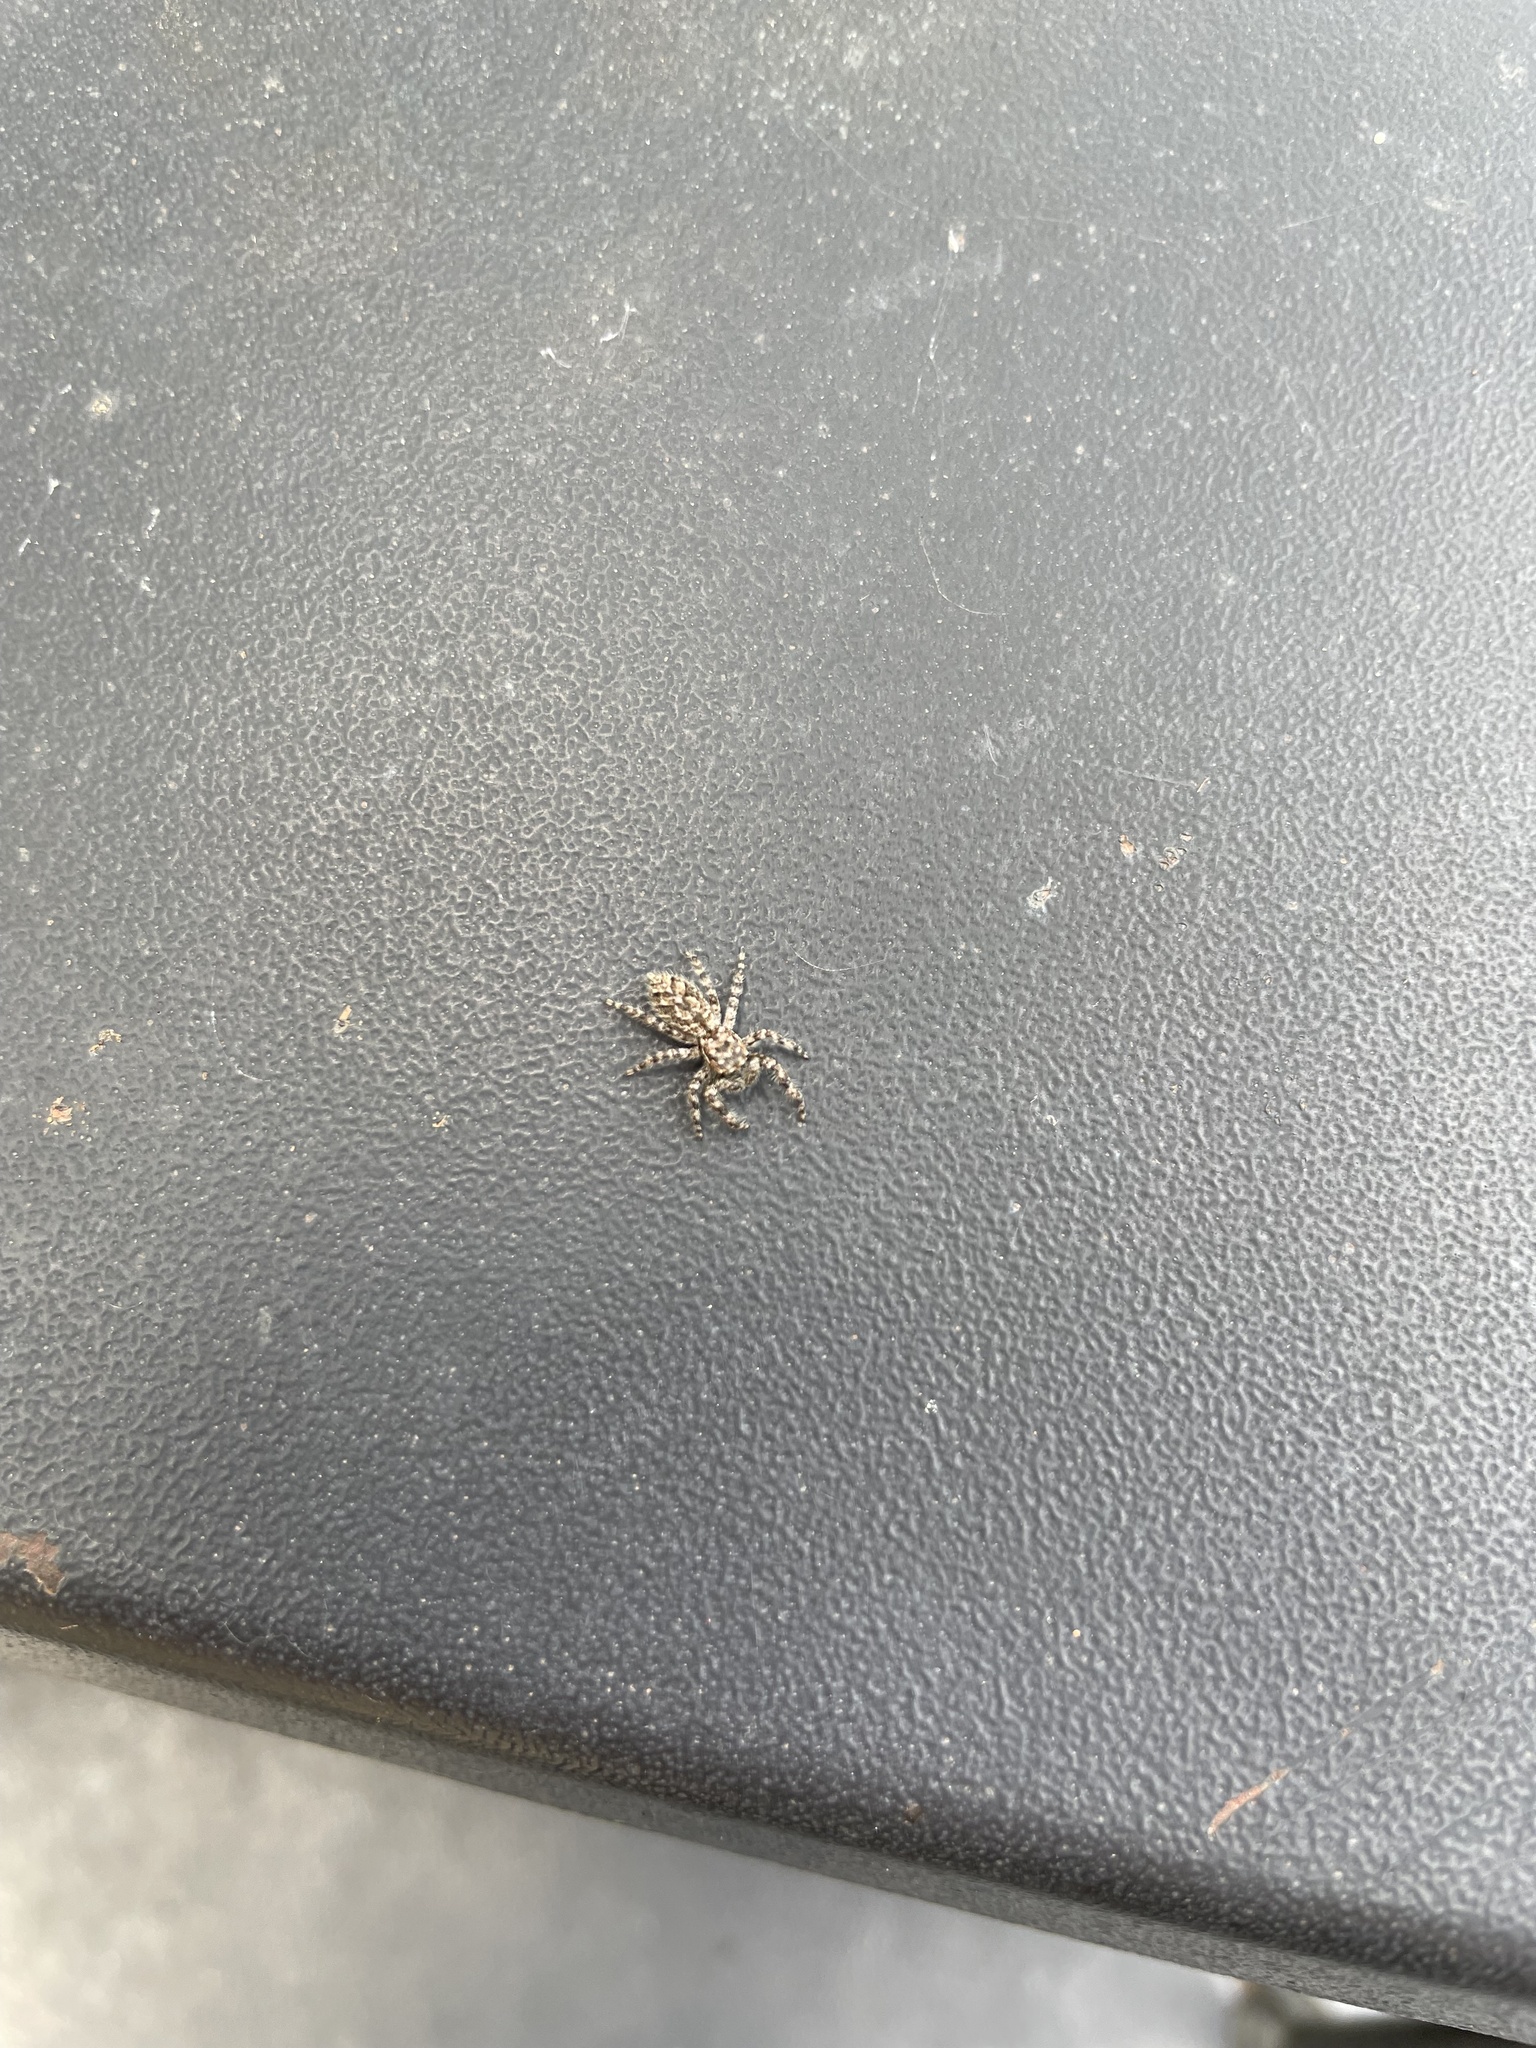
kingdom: Animalia
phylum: Arthropoda
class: Arachnida
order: Araneae
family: Salticidae
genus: Platycryptus
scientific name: Platycryptus undatus
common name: Tan jumping spider
